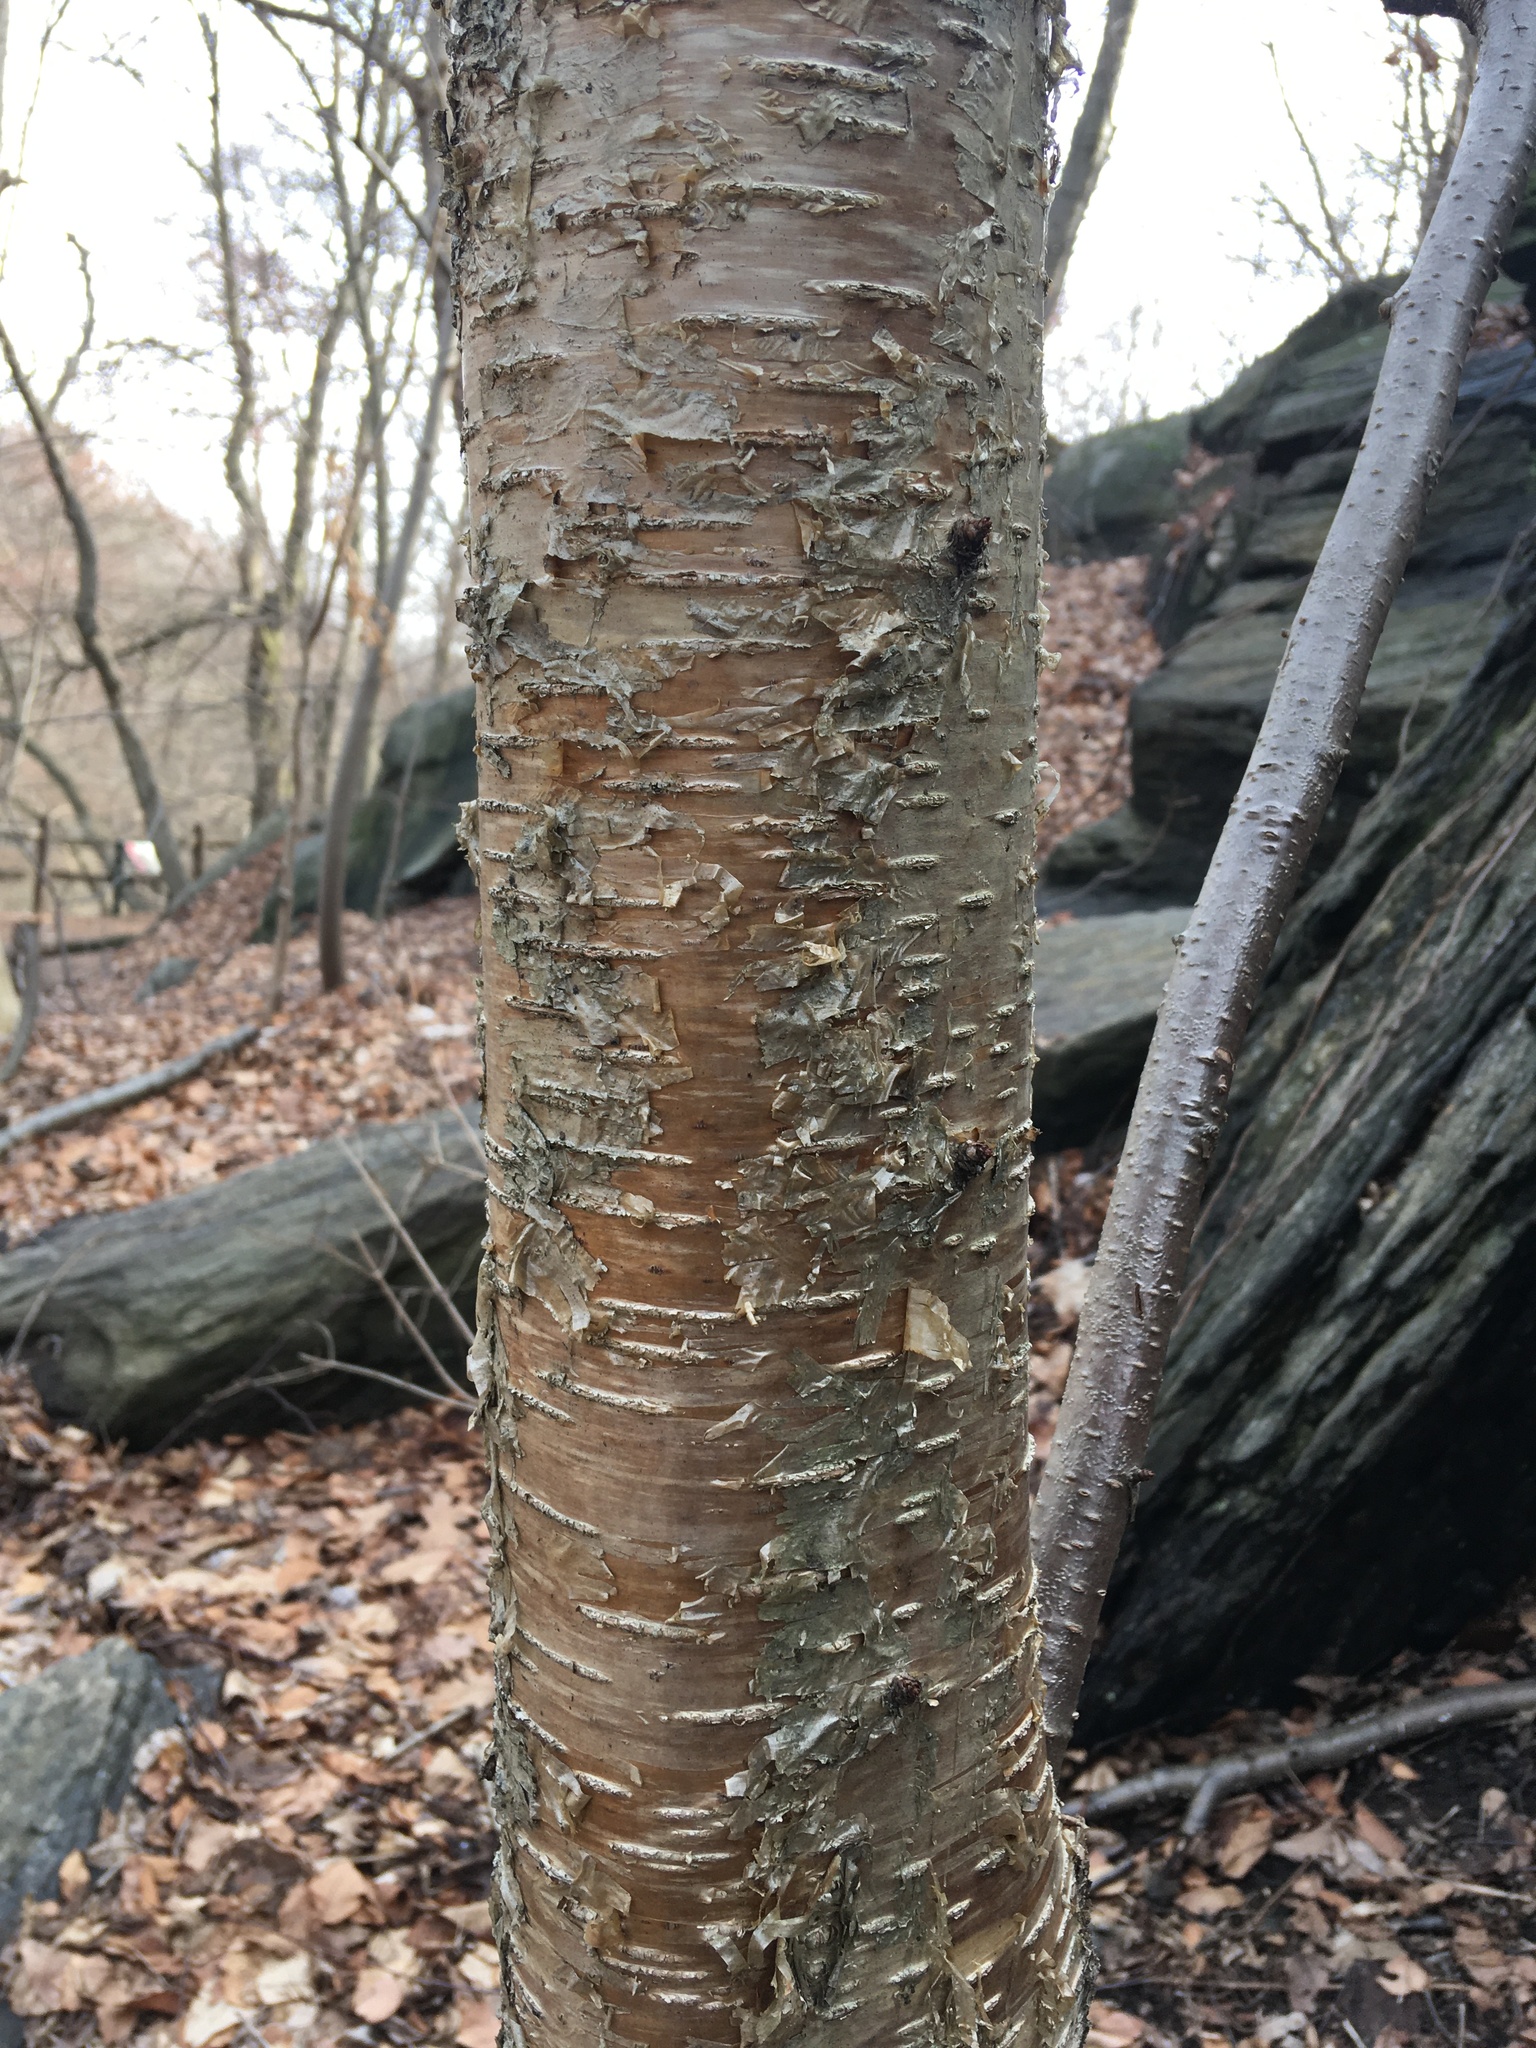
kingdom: Plantae
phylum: Tracheophyta
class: Magnoliopsida
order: Fagales
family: Betulaceae
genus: Betula
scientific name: Betula alleghaniensis
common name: Yellow birch
